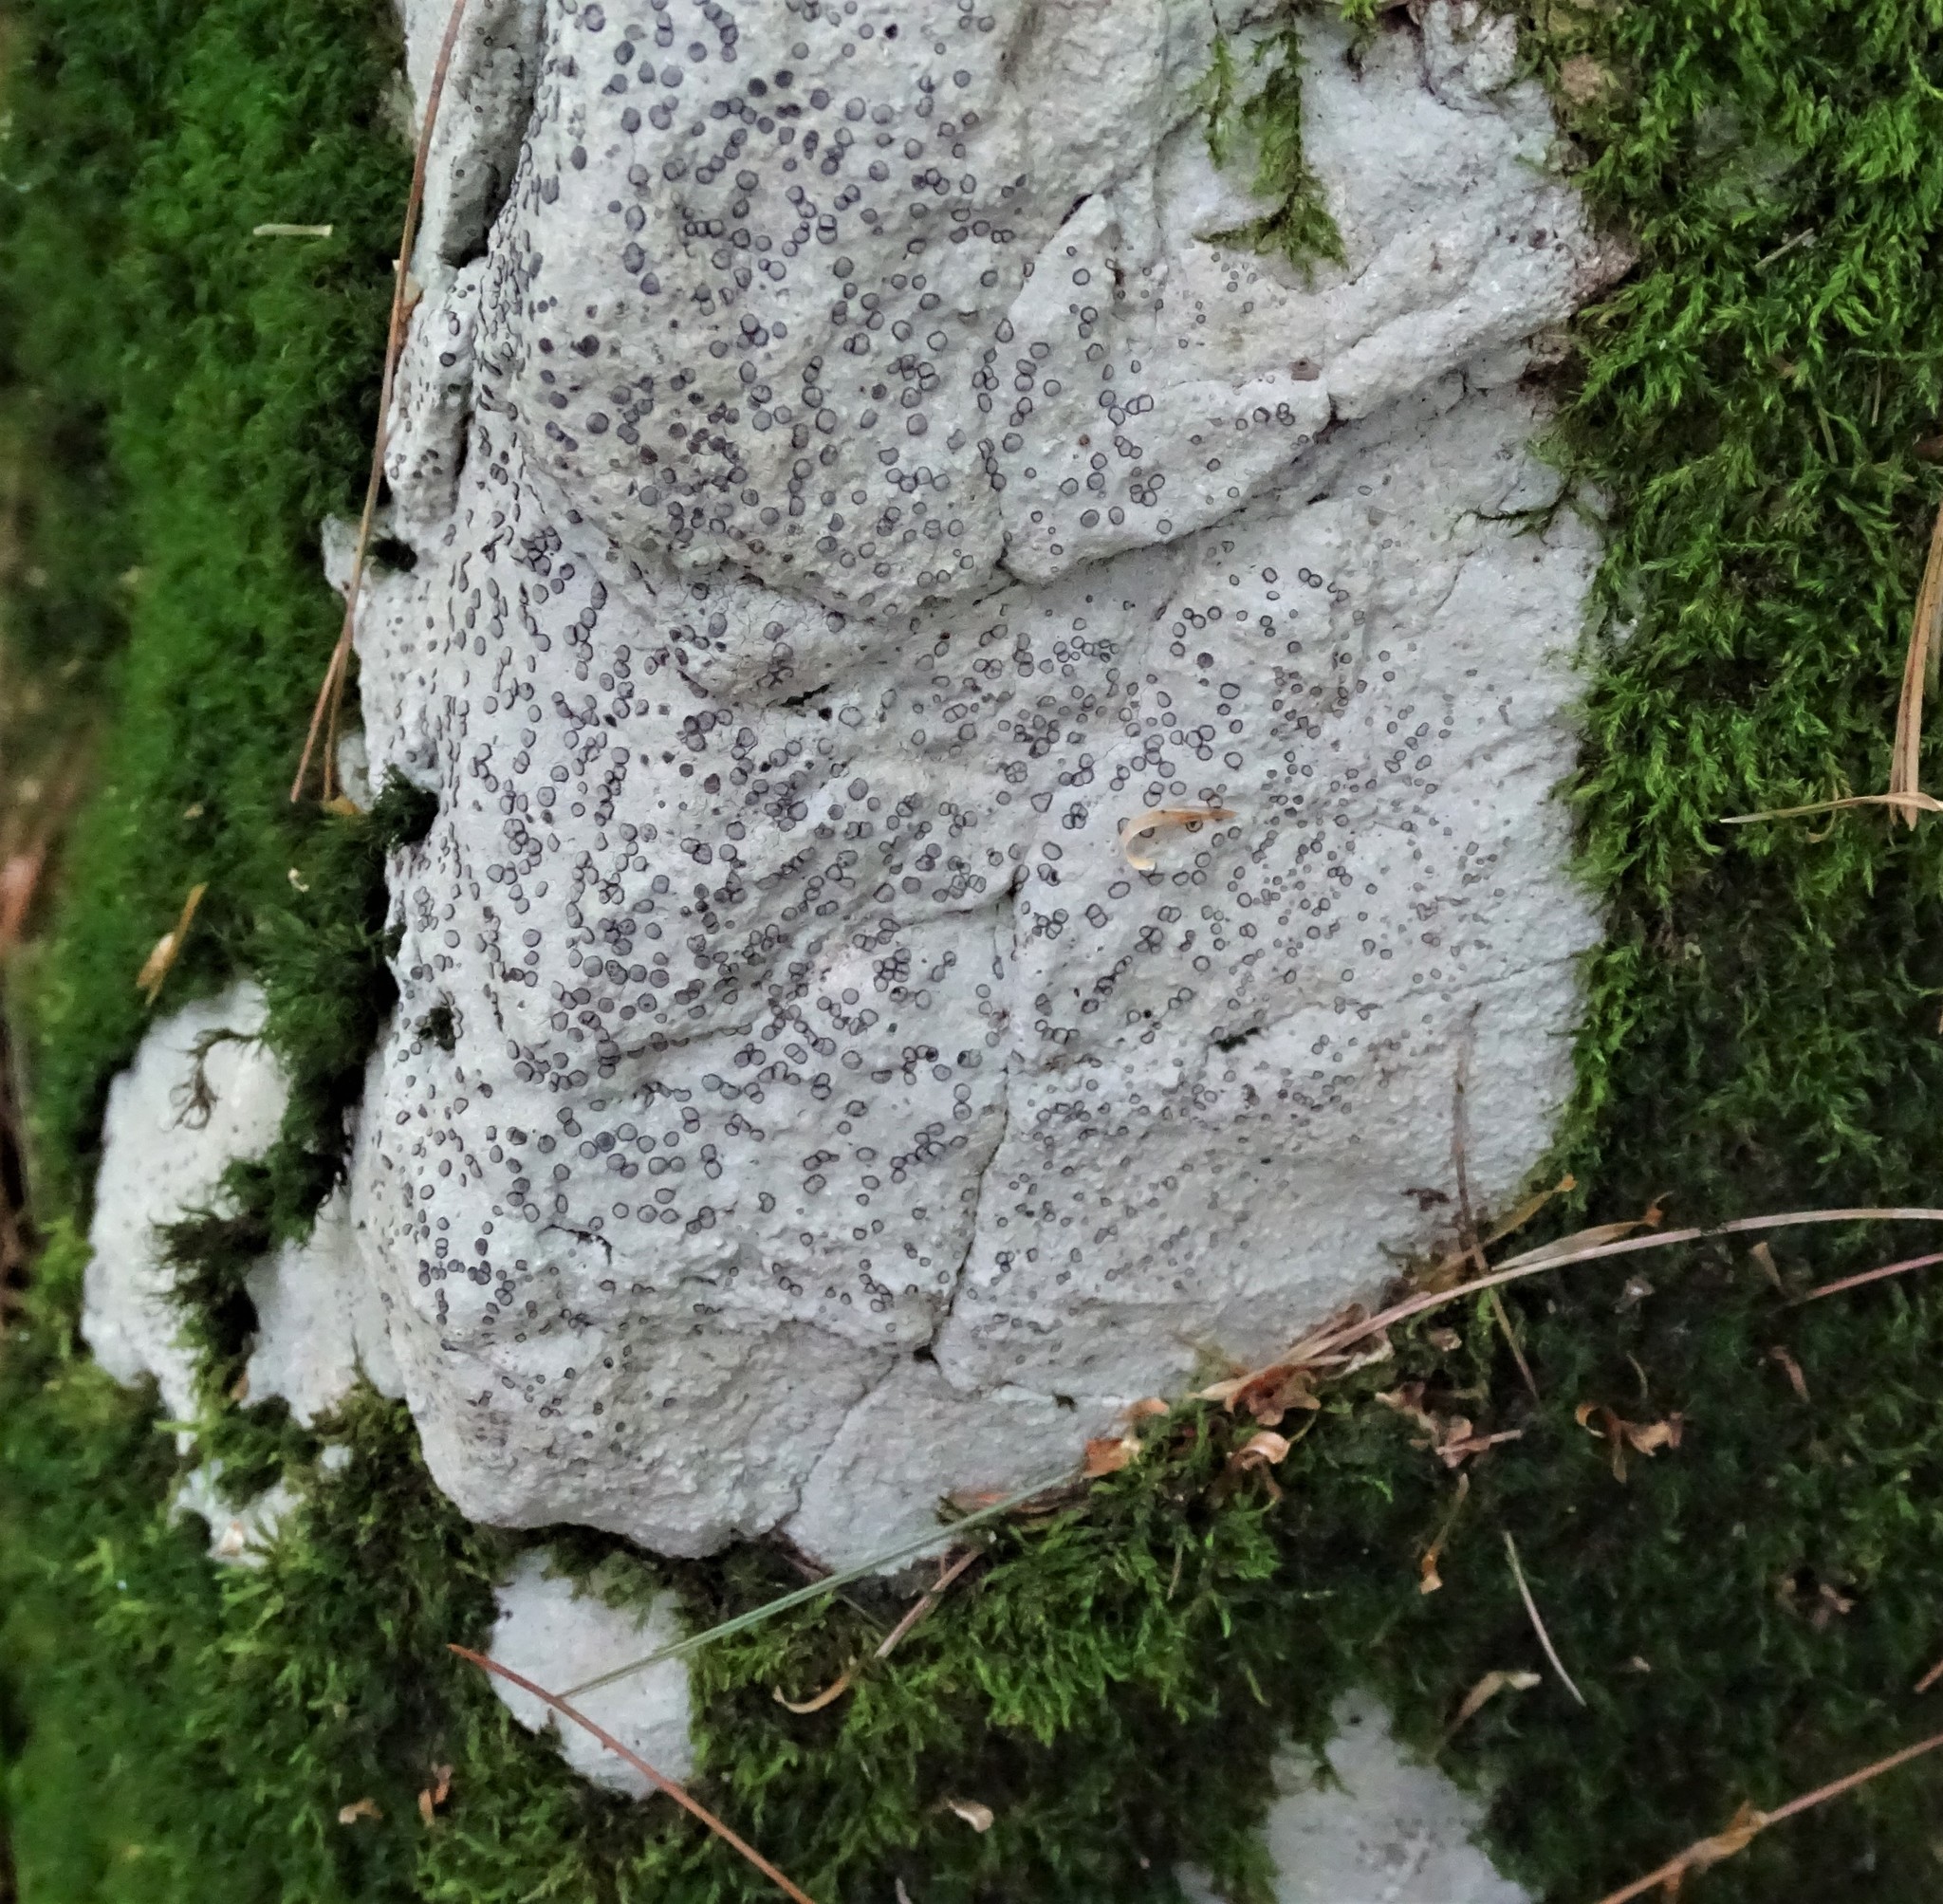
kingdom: Fungi
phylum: Ascomycota
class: Lecanoromycetes
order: Lecideales
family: Lecideaceae
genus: Porpidia
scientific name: Porpidia albocaerulescens
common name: Smokey-eyed boulder lichen
